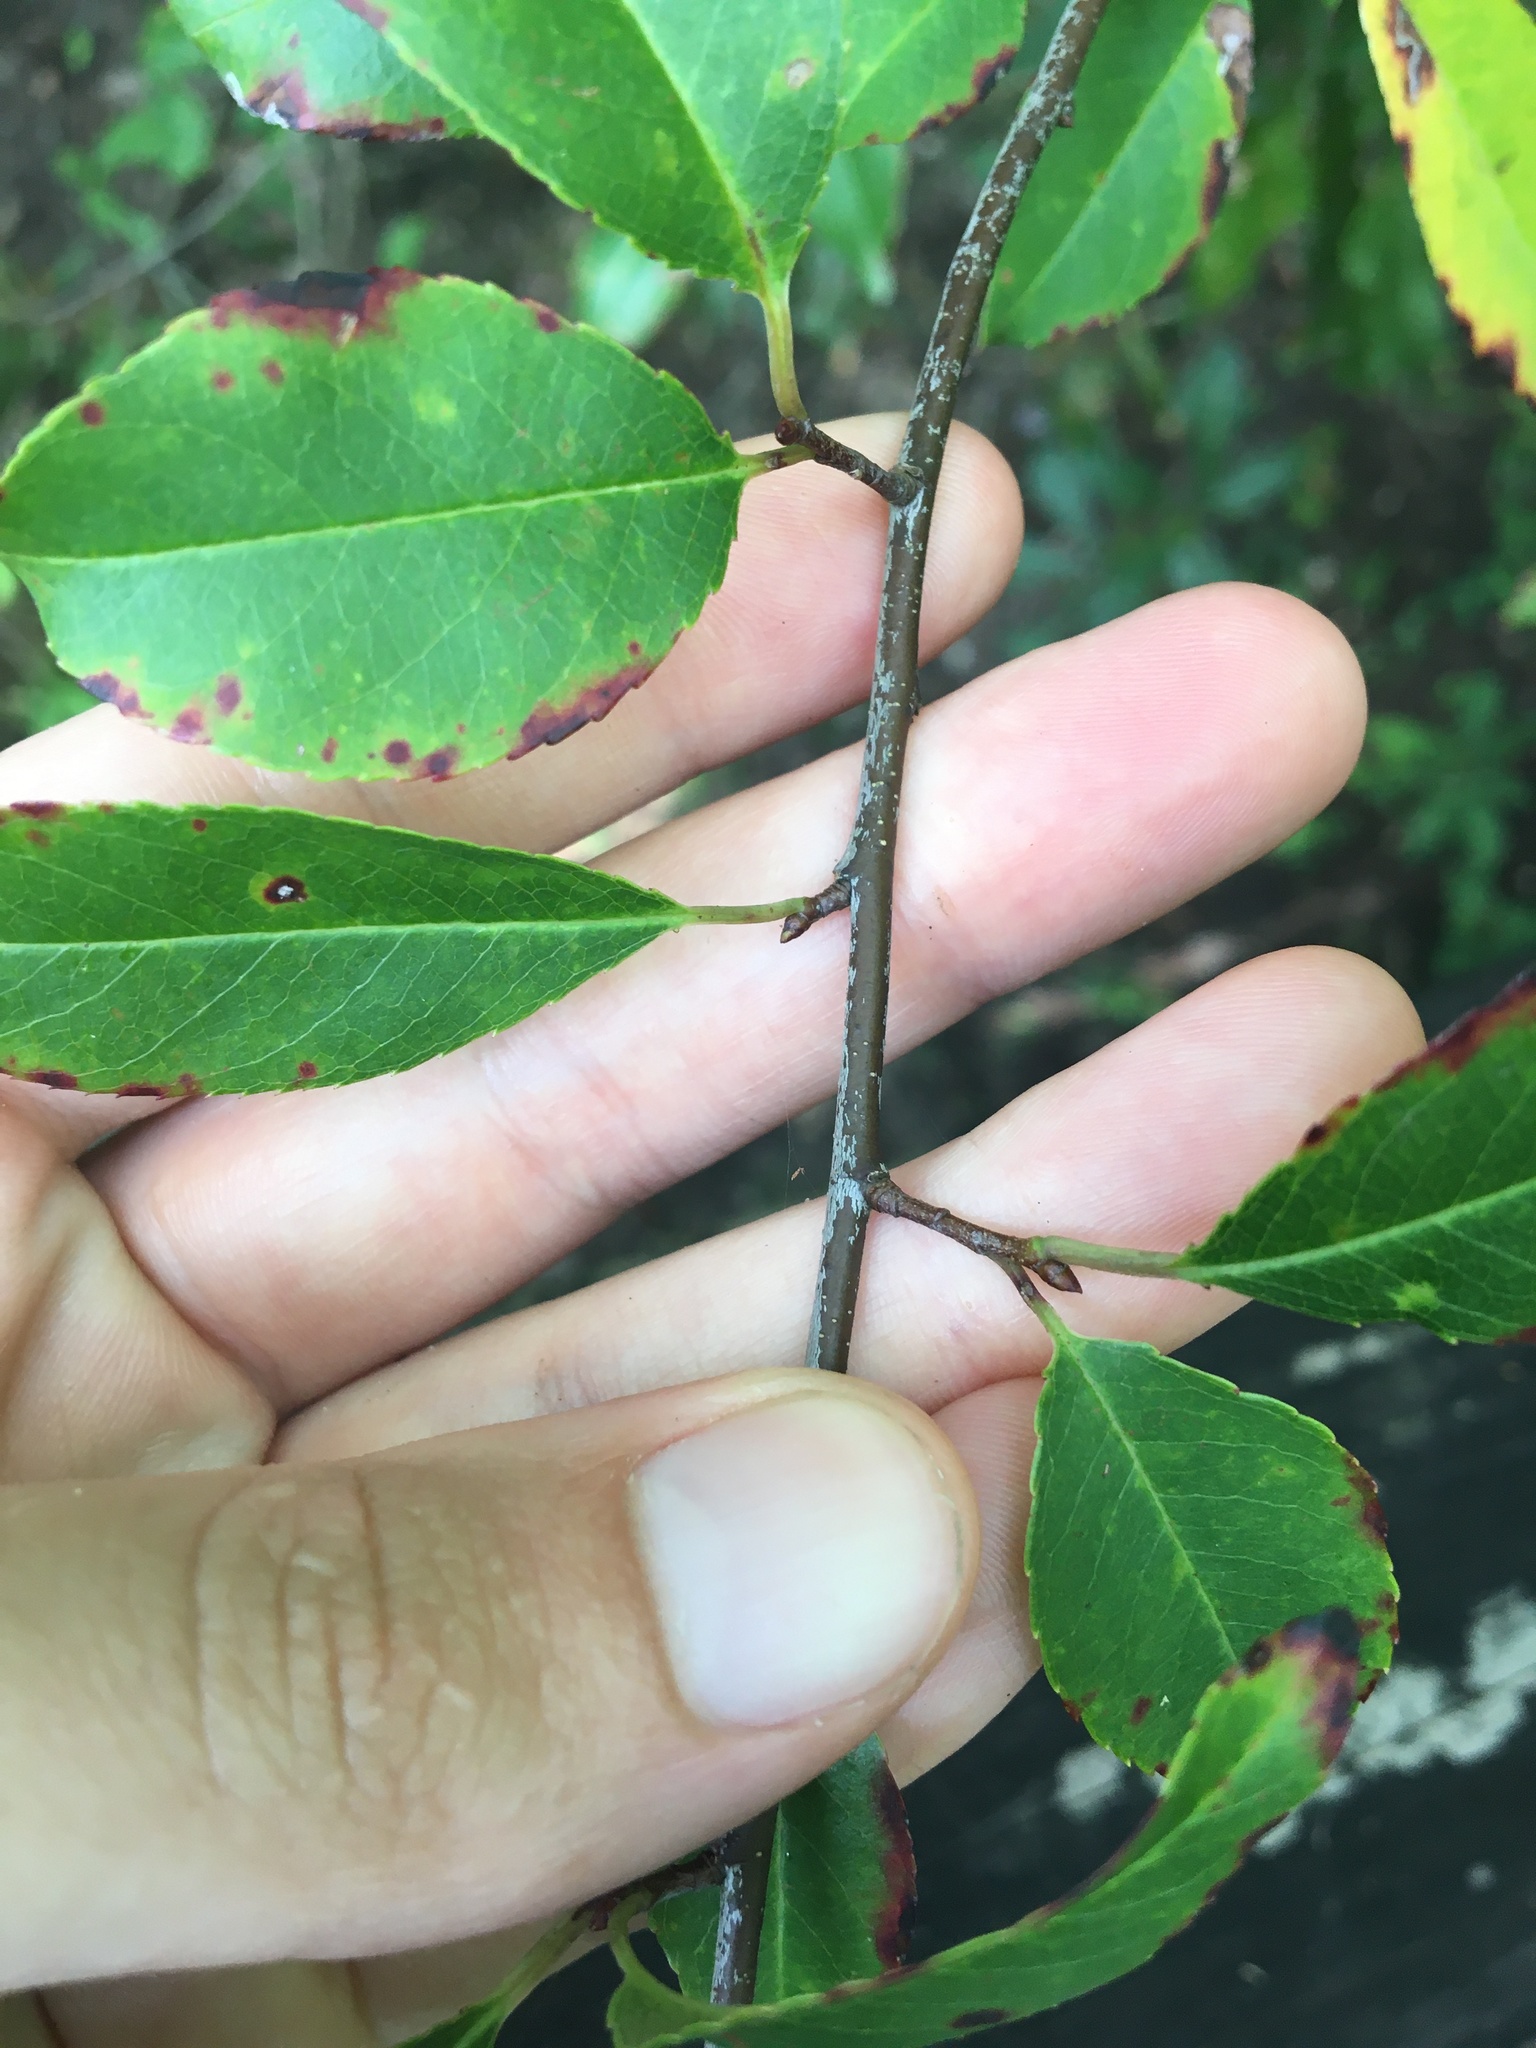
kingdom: Plantae
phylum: Tracheophyta
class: Magnoliopsida
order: Rosales
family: Rosaceae
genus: Prunus
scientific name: Prunus serotina
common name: Black cherry
